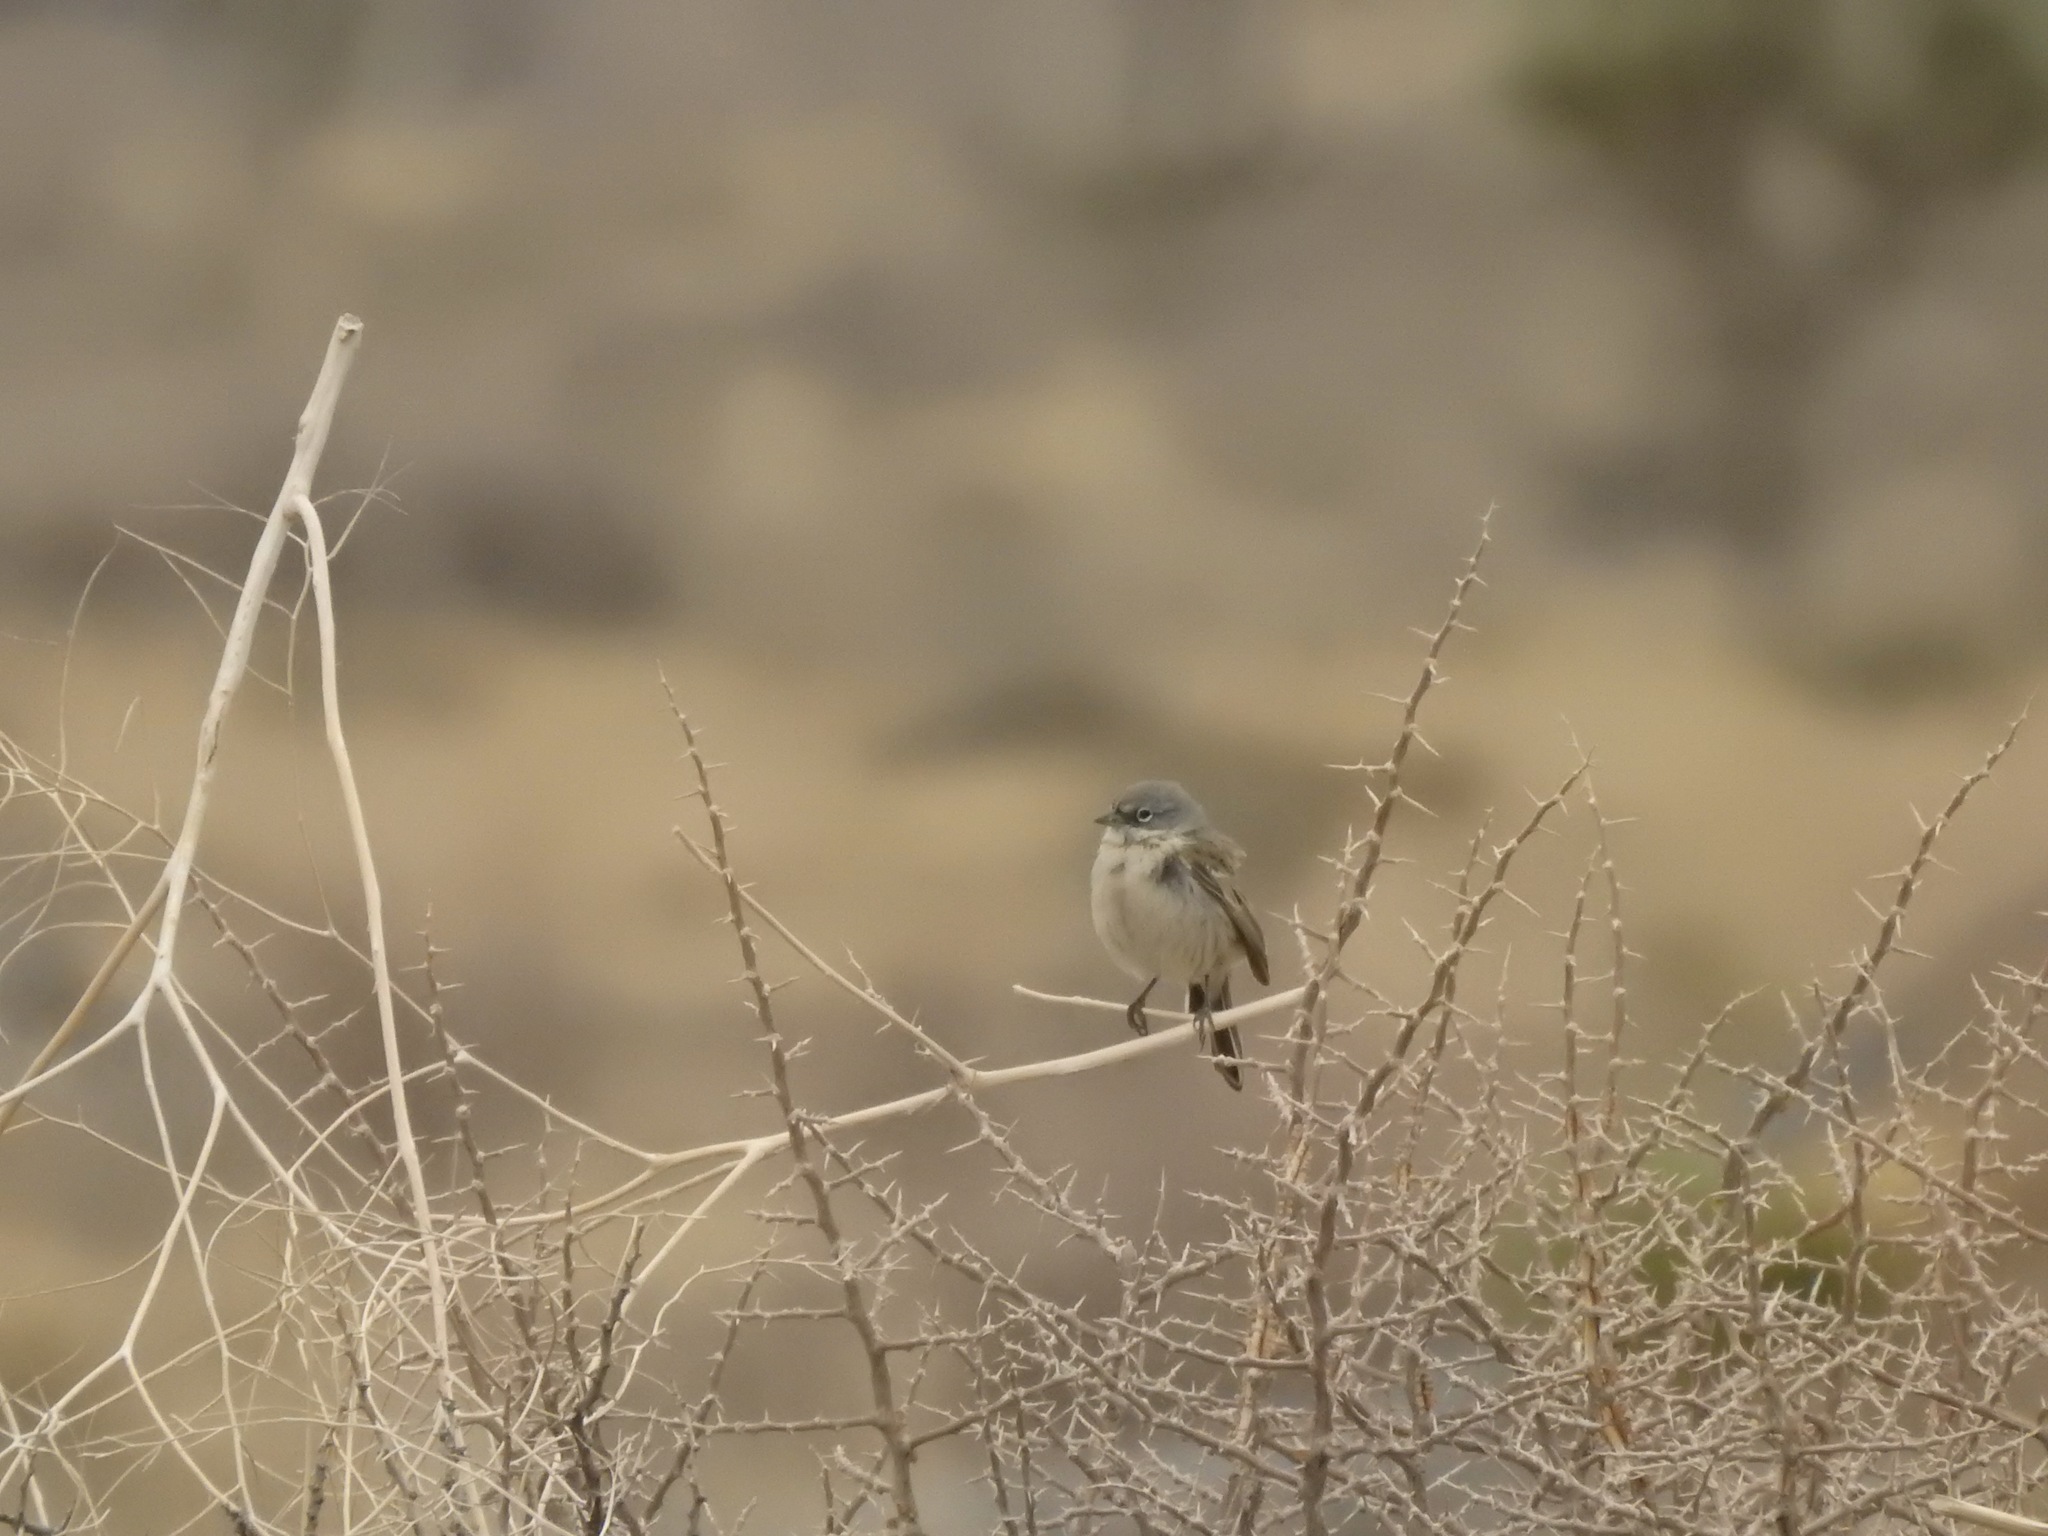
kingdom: Animalia
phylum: Chordata
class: Aves
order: Passeriformes
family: Passerellidae
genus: Artemisiospiza
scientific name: Artemisiospiza nevadensis
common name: Sagebrush sparrow
